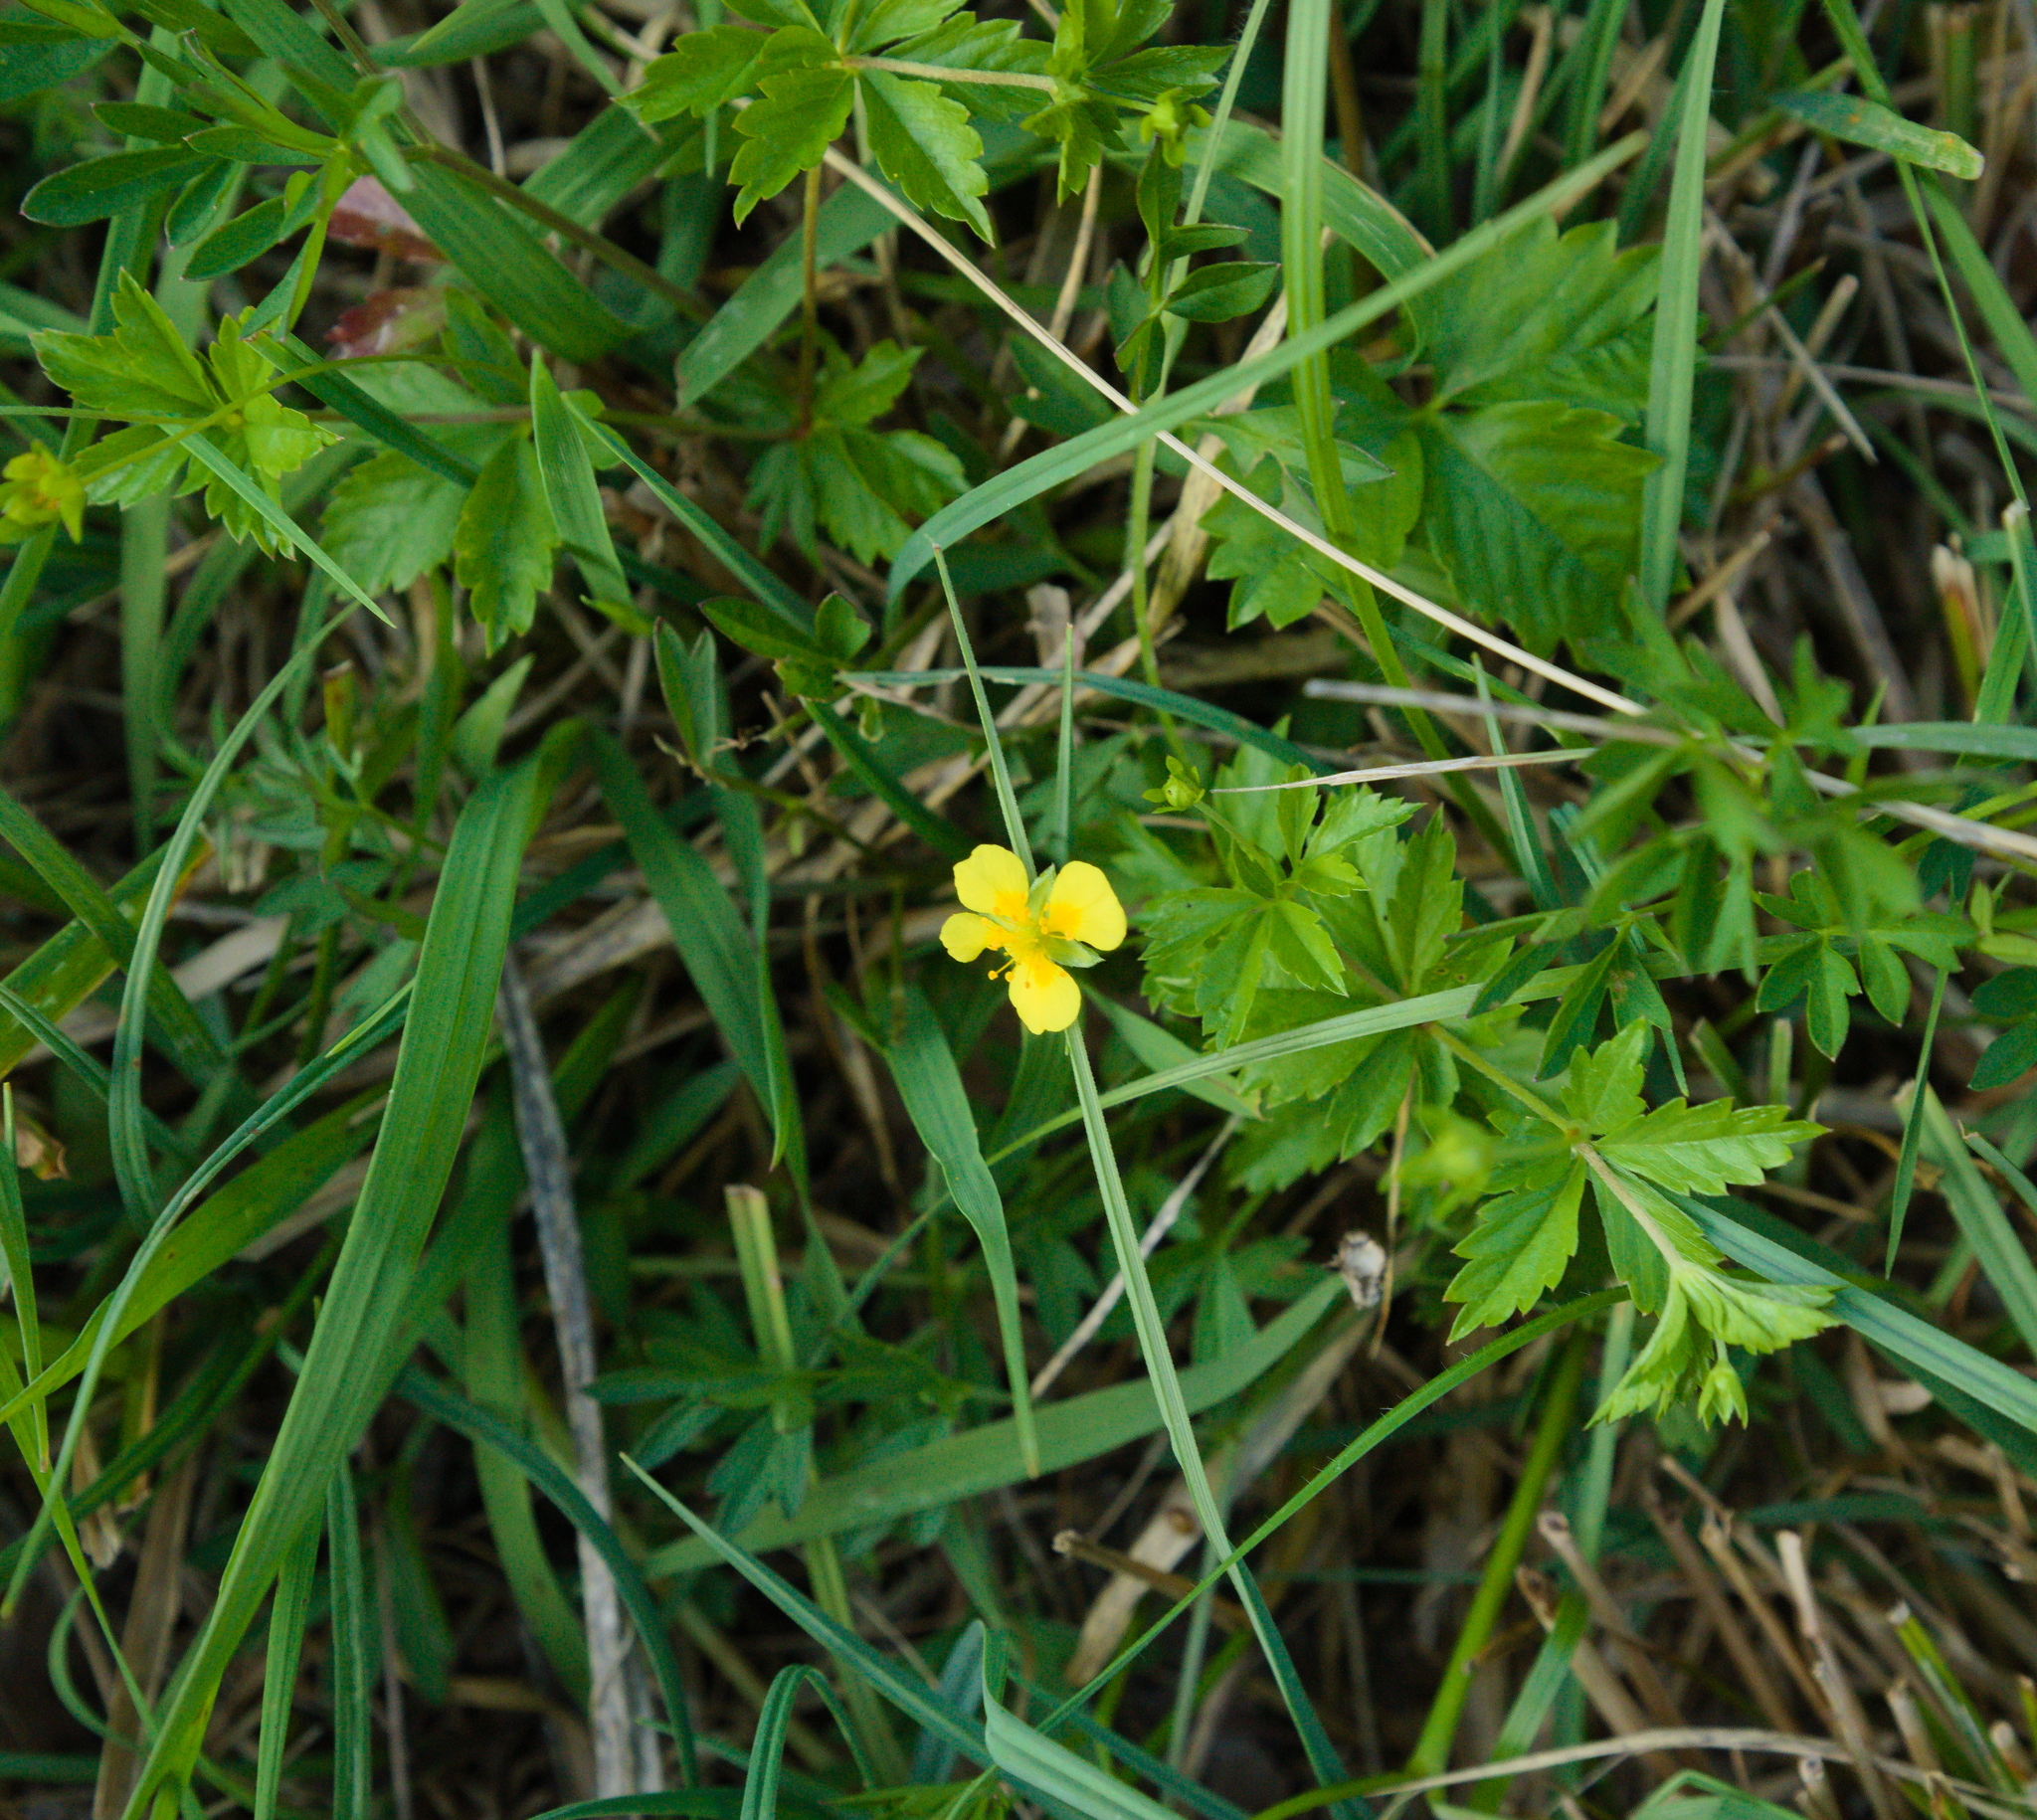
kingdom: Plantae
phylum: Tracheophyta
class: Magnoliopsida
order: Rosales
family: Rosaceae
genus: Potentilla
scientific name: Potentilla erecta
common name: Tormentil
